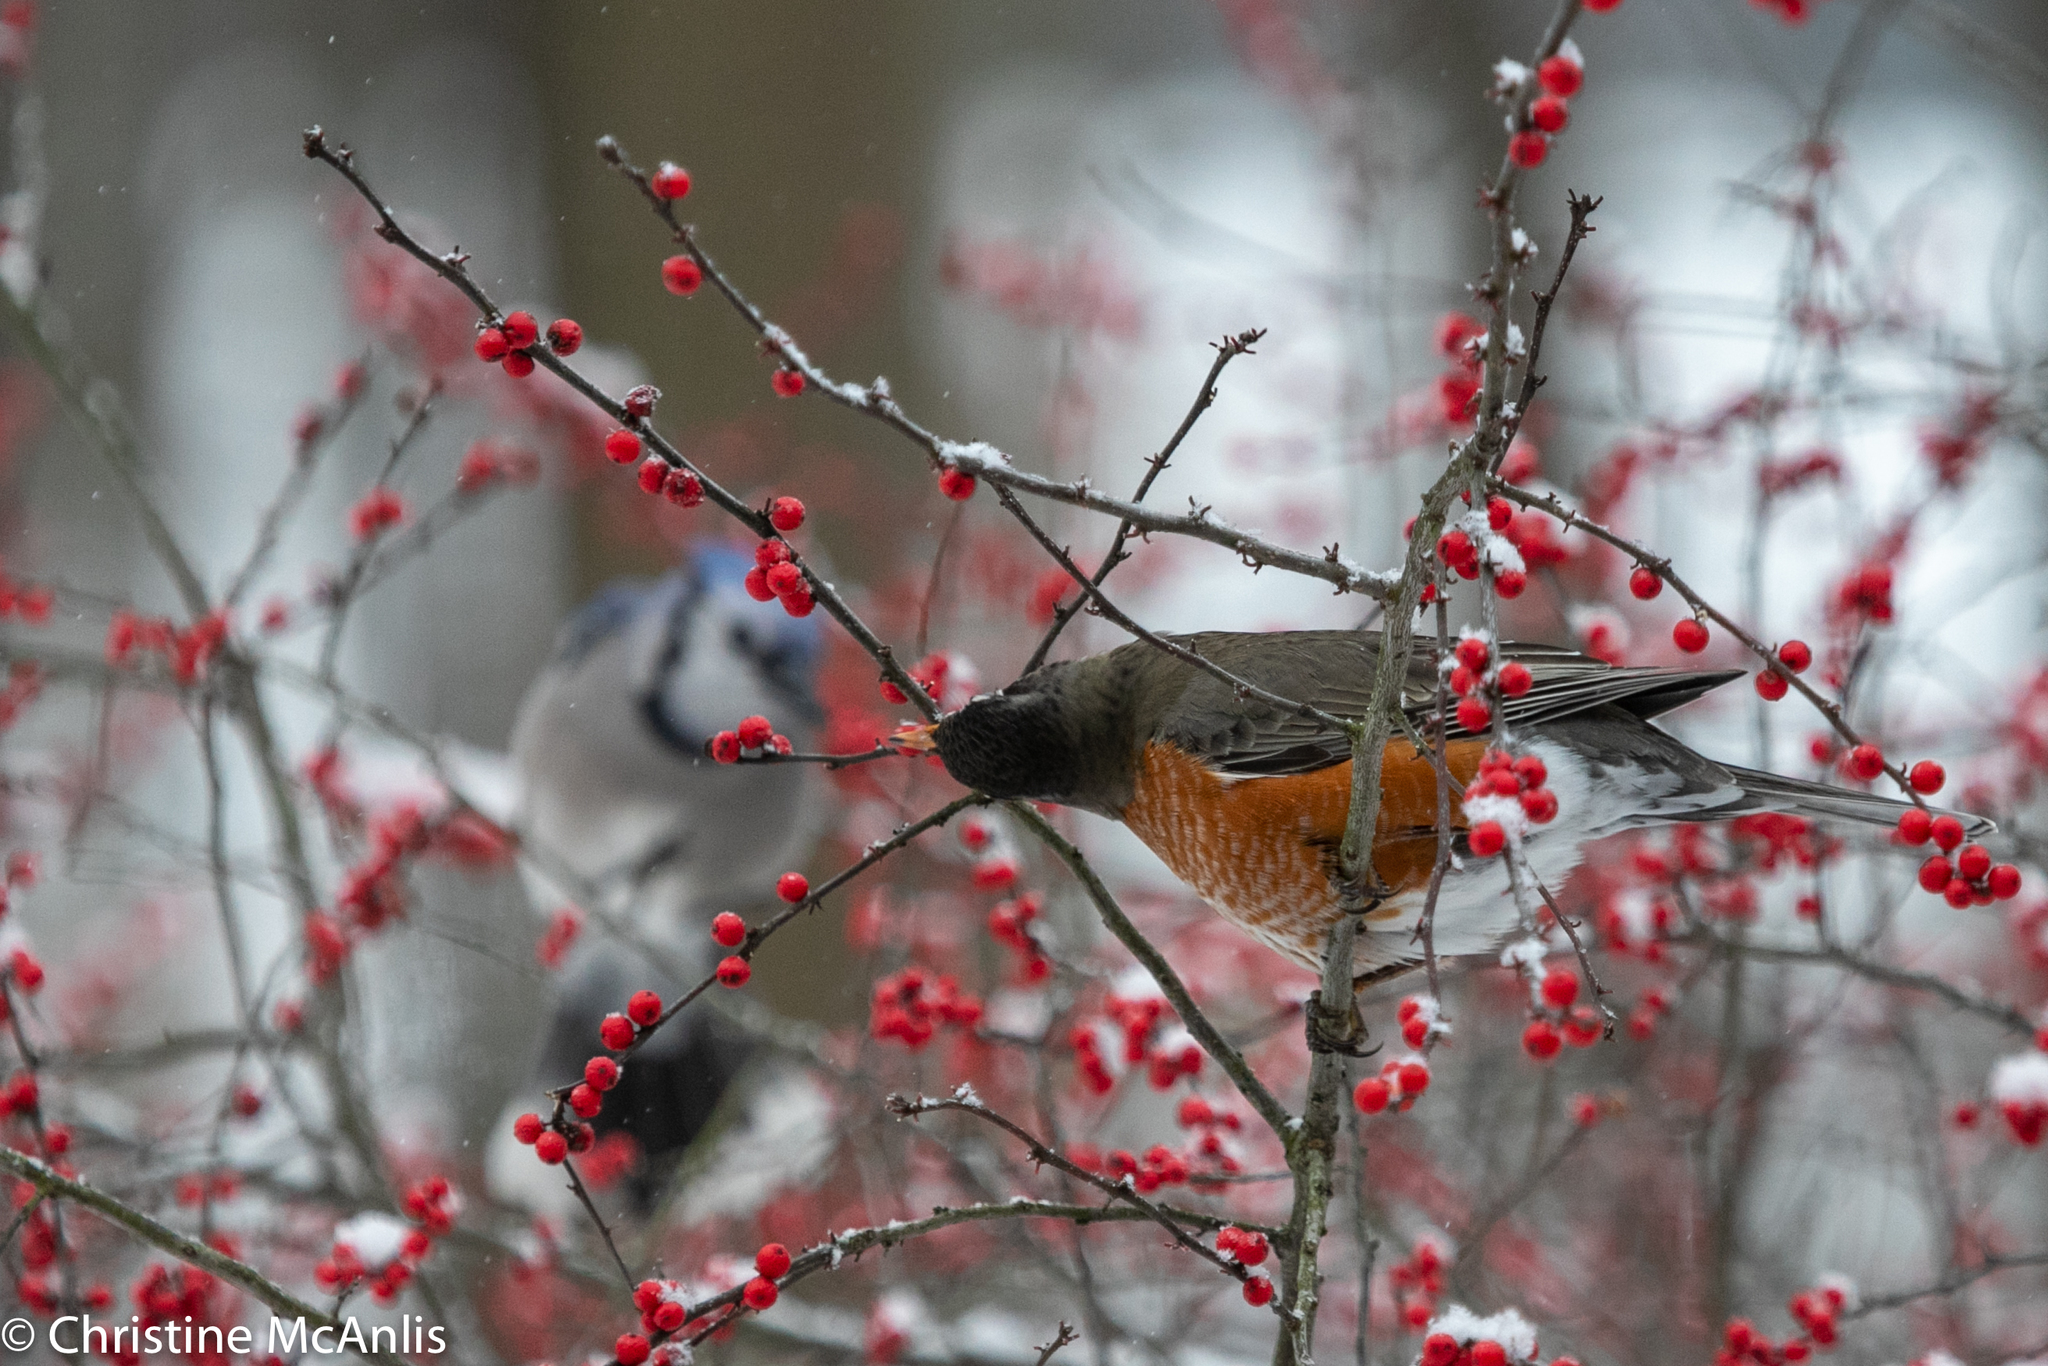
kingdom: Animalia
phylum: Chordata
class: Aves
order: Passeriformes
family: Turdidae
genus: Turdus
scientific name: Turdus migratorius
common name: American robin
